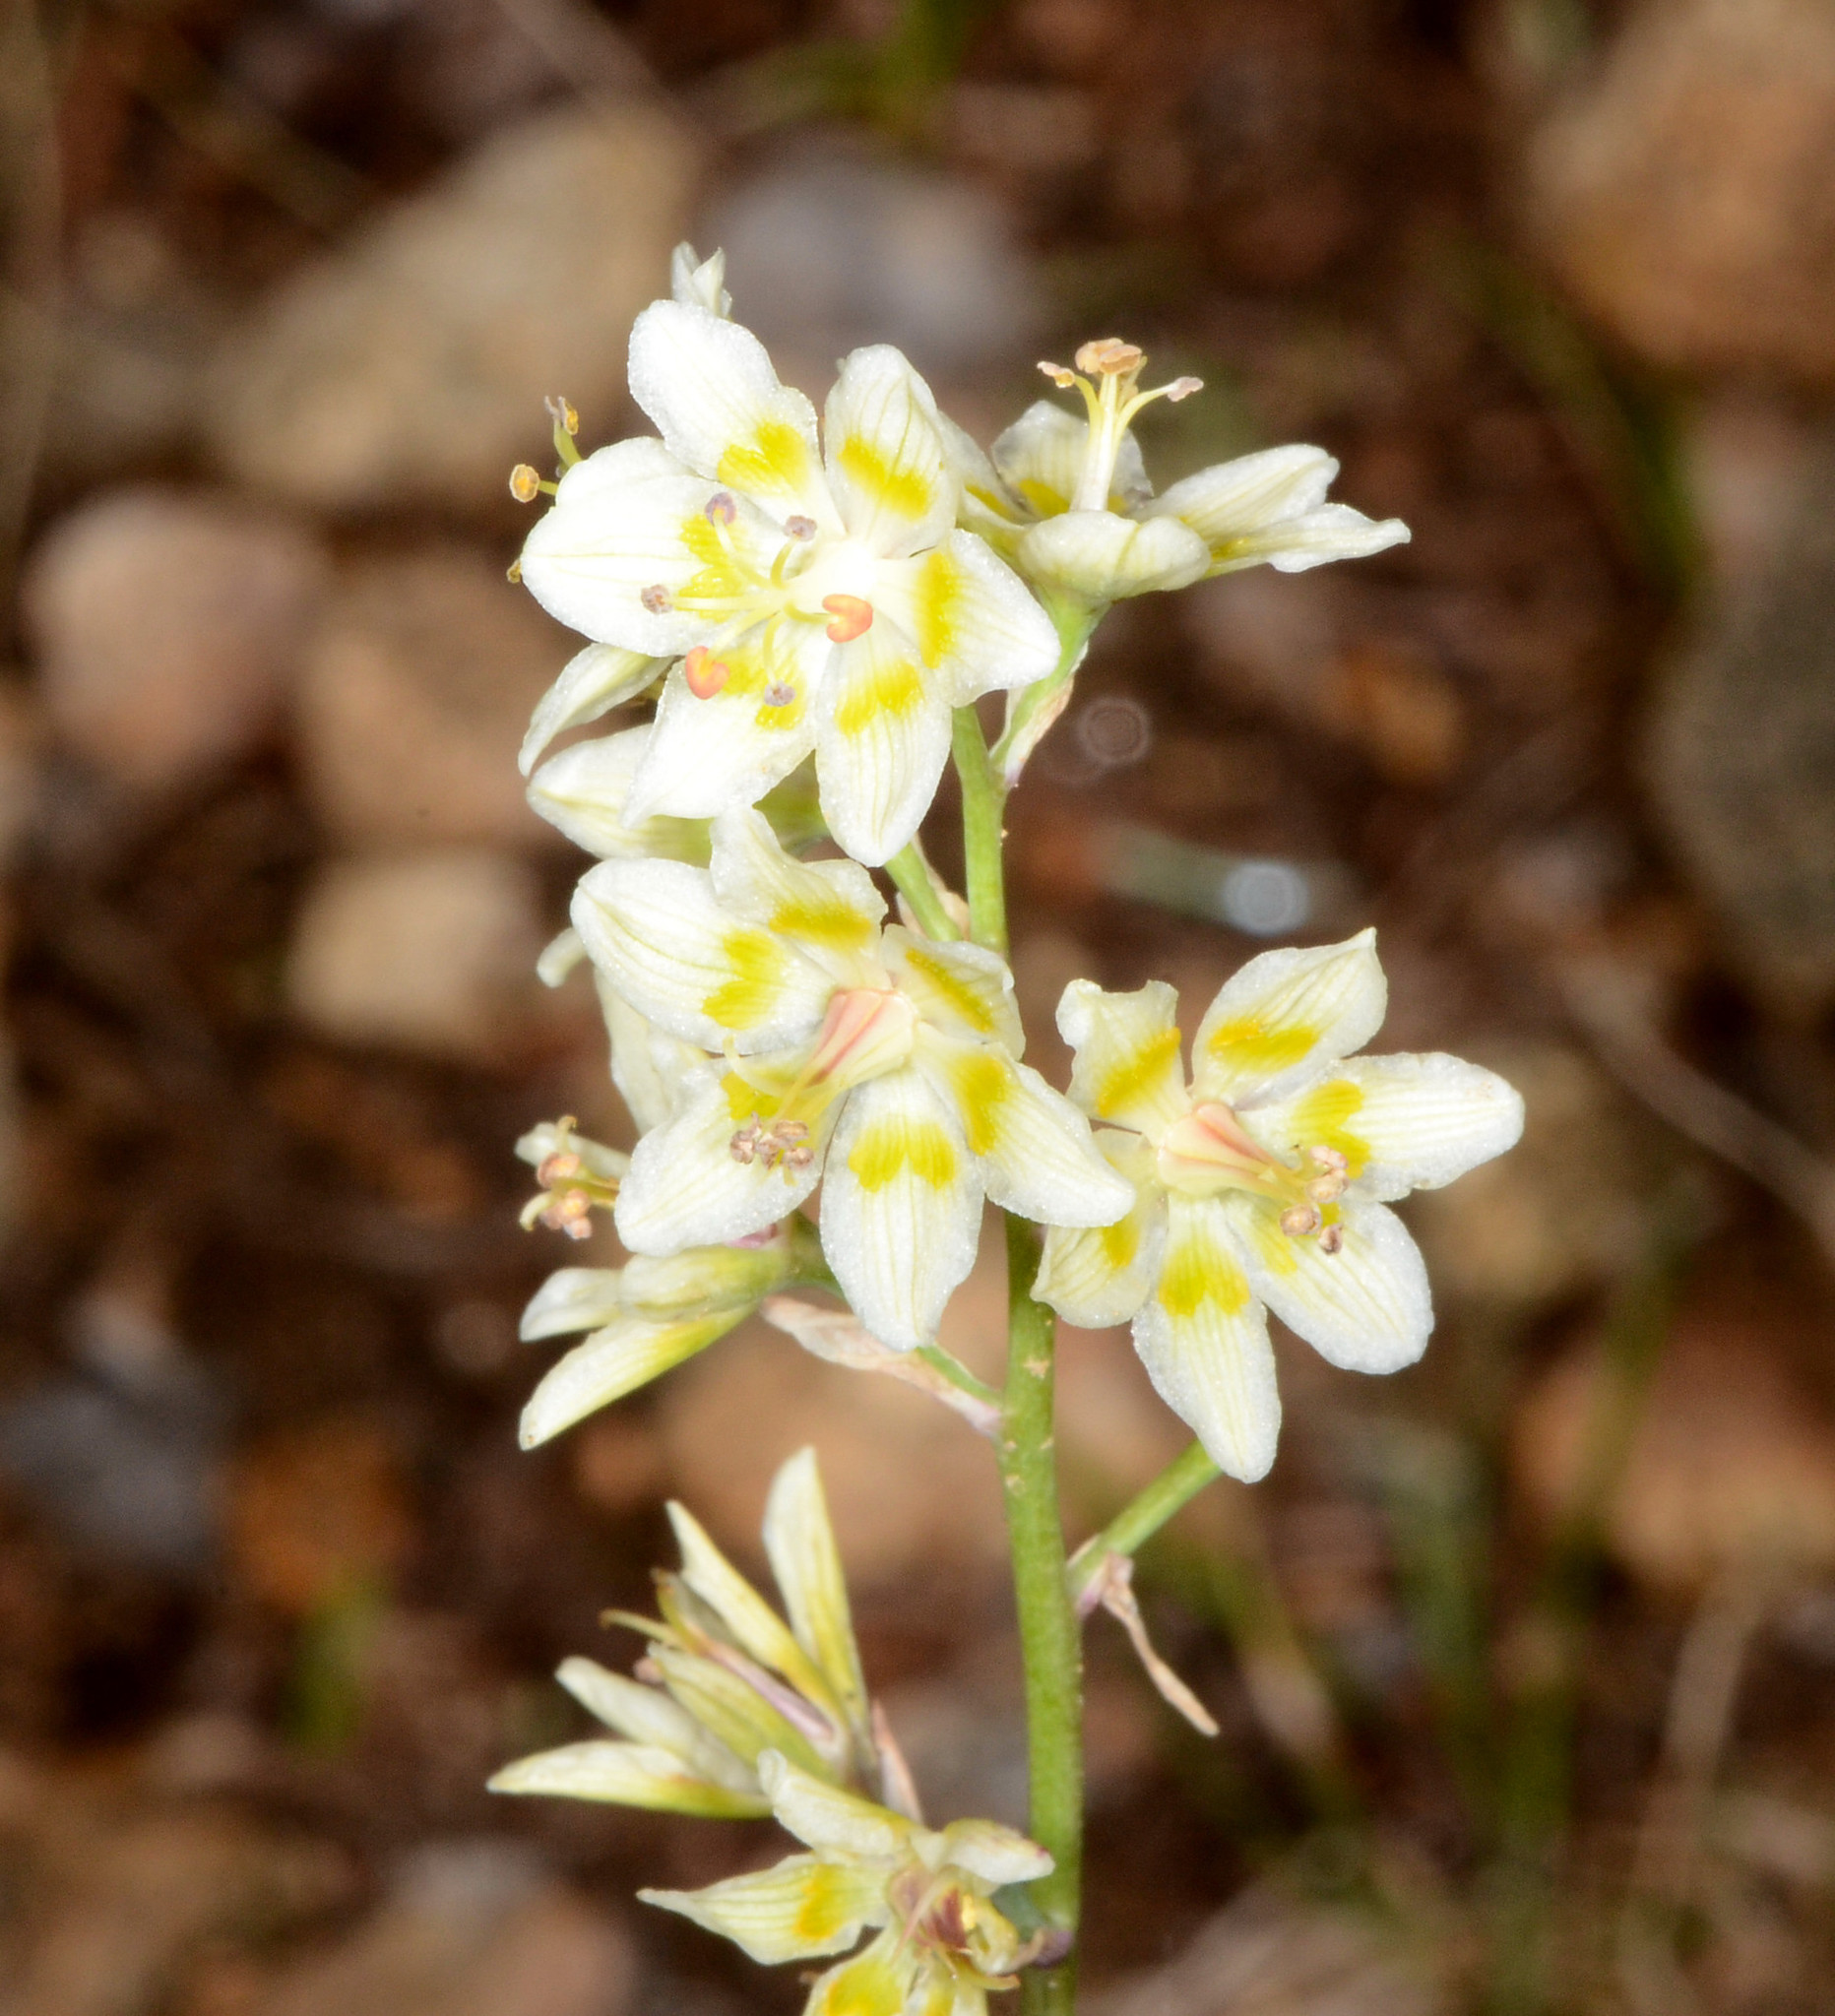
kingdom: Plantae
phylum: Tracheophyta
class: Liliopsida
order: Liliales
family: Melanthiaceae
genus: Anticlea
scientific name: Anticlea elegans
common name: Mountain death camas
